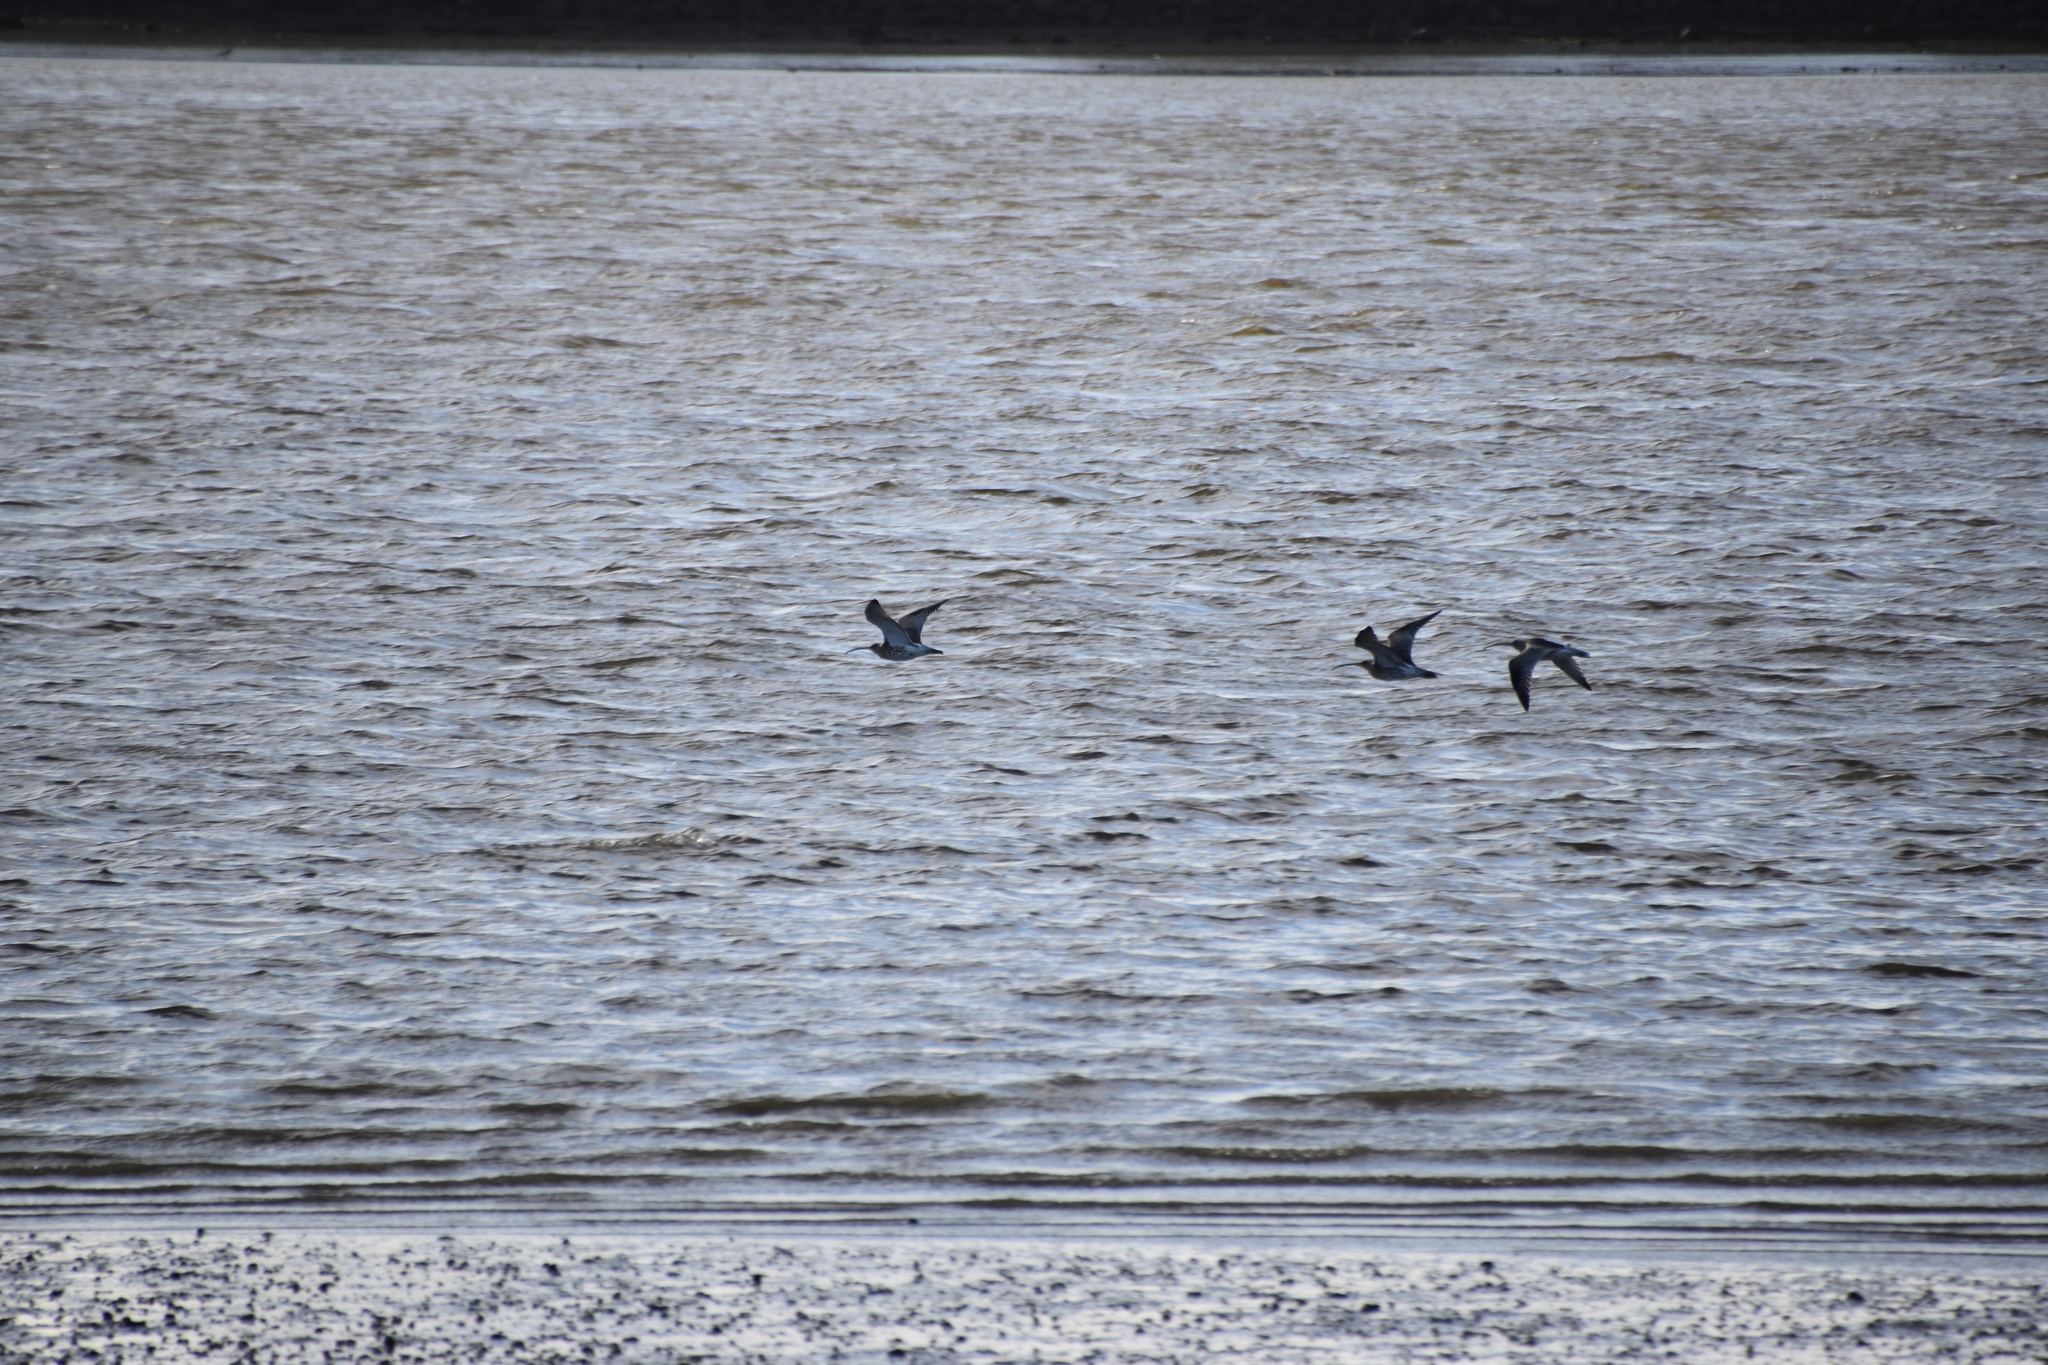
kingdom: Animalia
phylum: Chordata
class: Aves
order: Charadriiformes
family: Scolopacidae
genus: Numenius
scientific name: Numenius arquata
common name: Eurasian curlew
